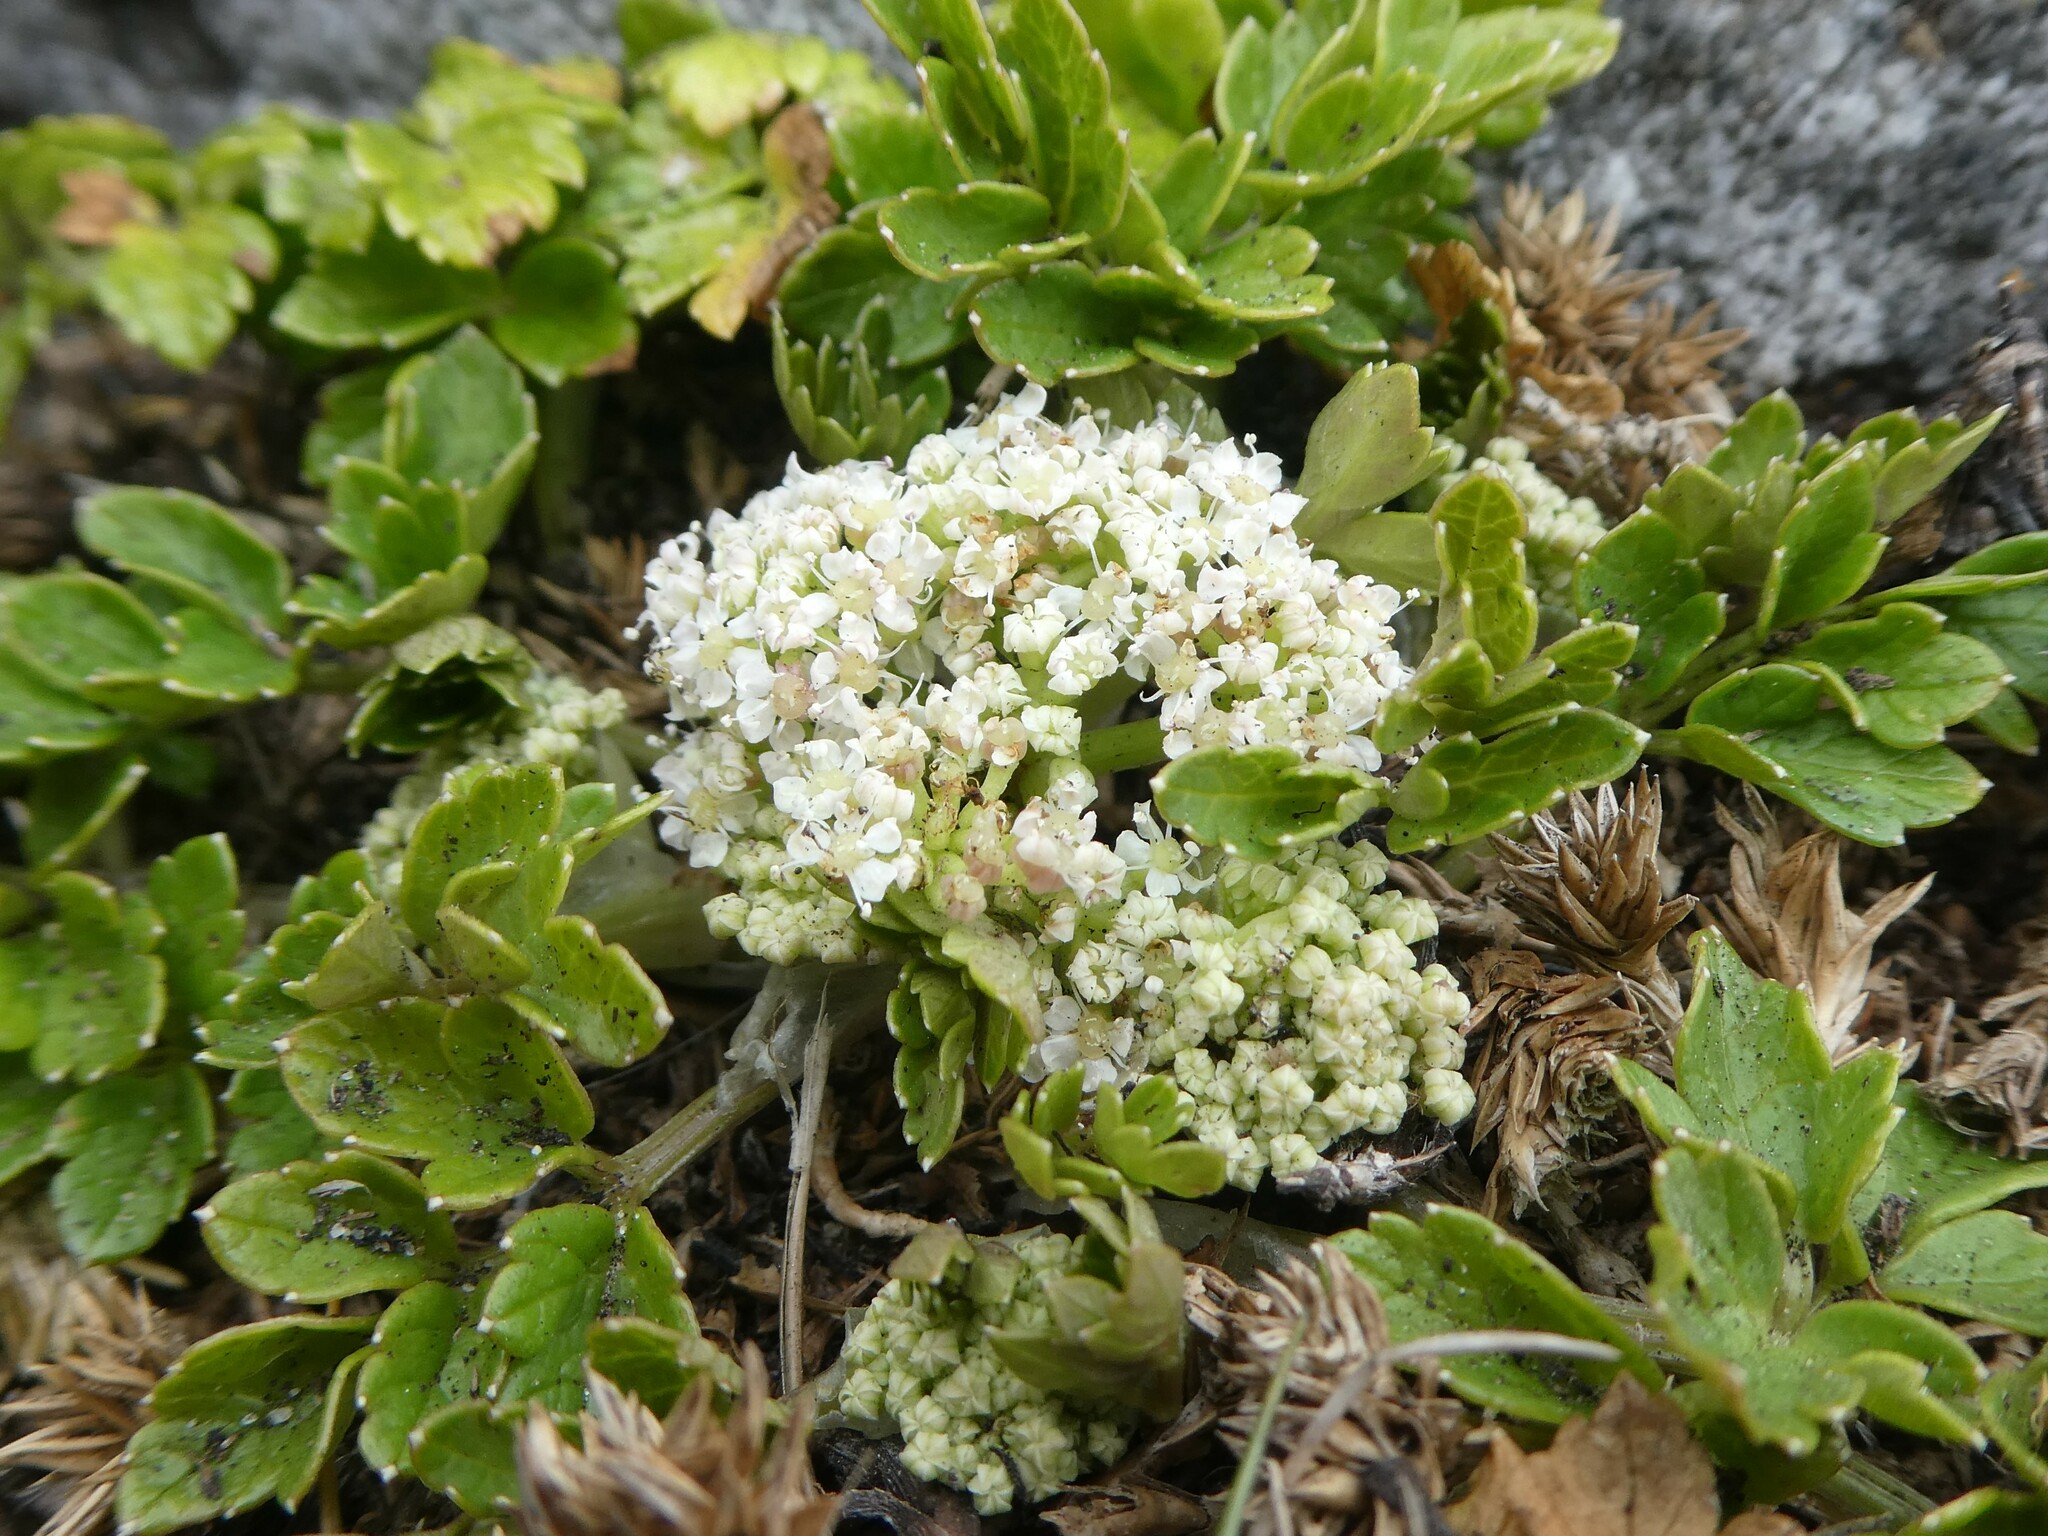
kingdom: Plantae
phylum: Tracheophyta
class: Magnoliopsida
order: Apiales
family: Apiaceae
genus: Apium
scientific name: Apium prostratum
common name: Prostrate marshwort
